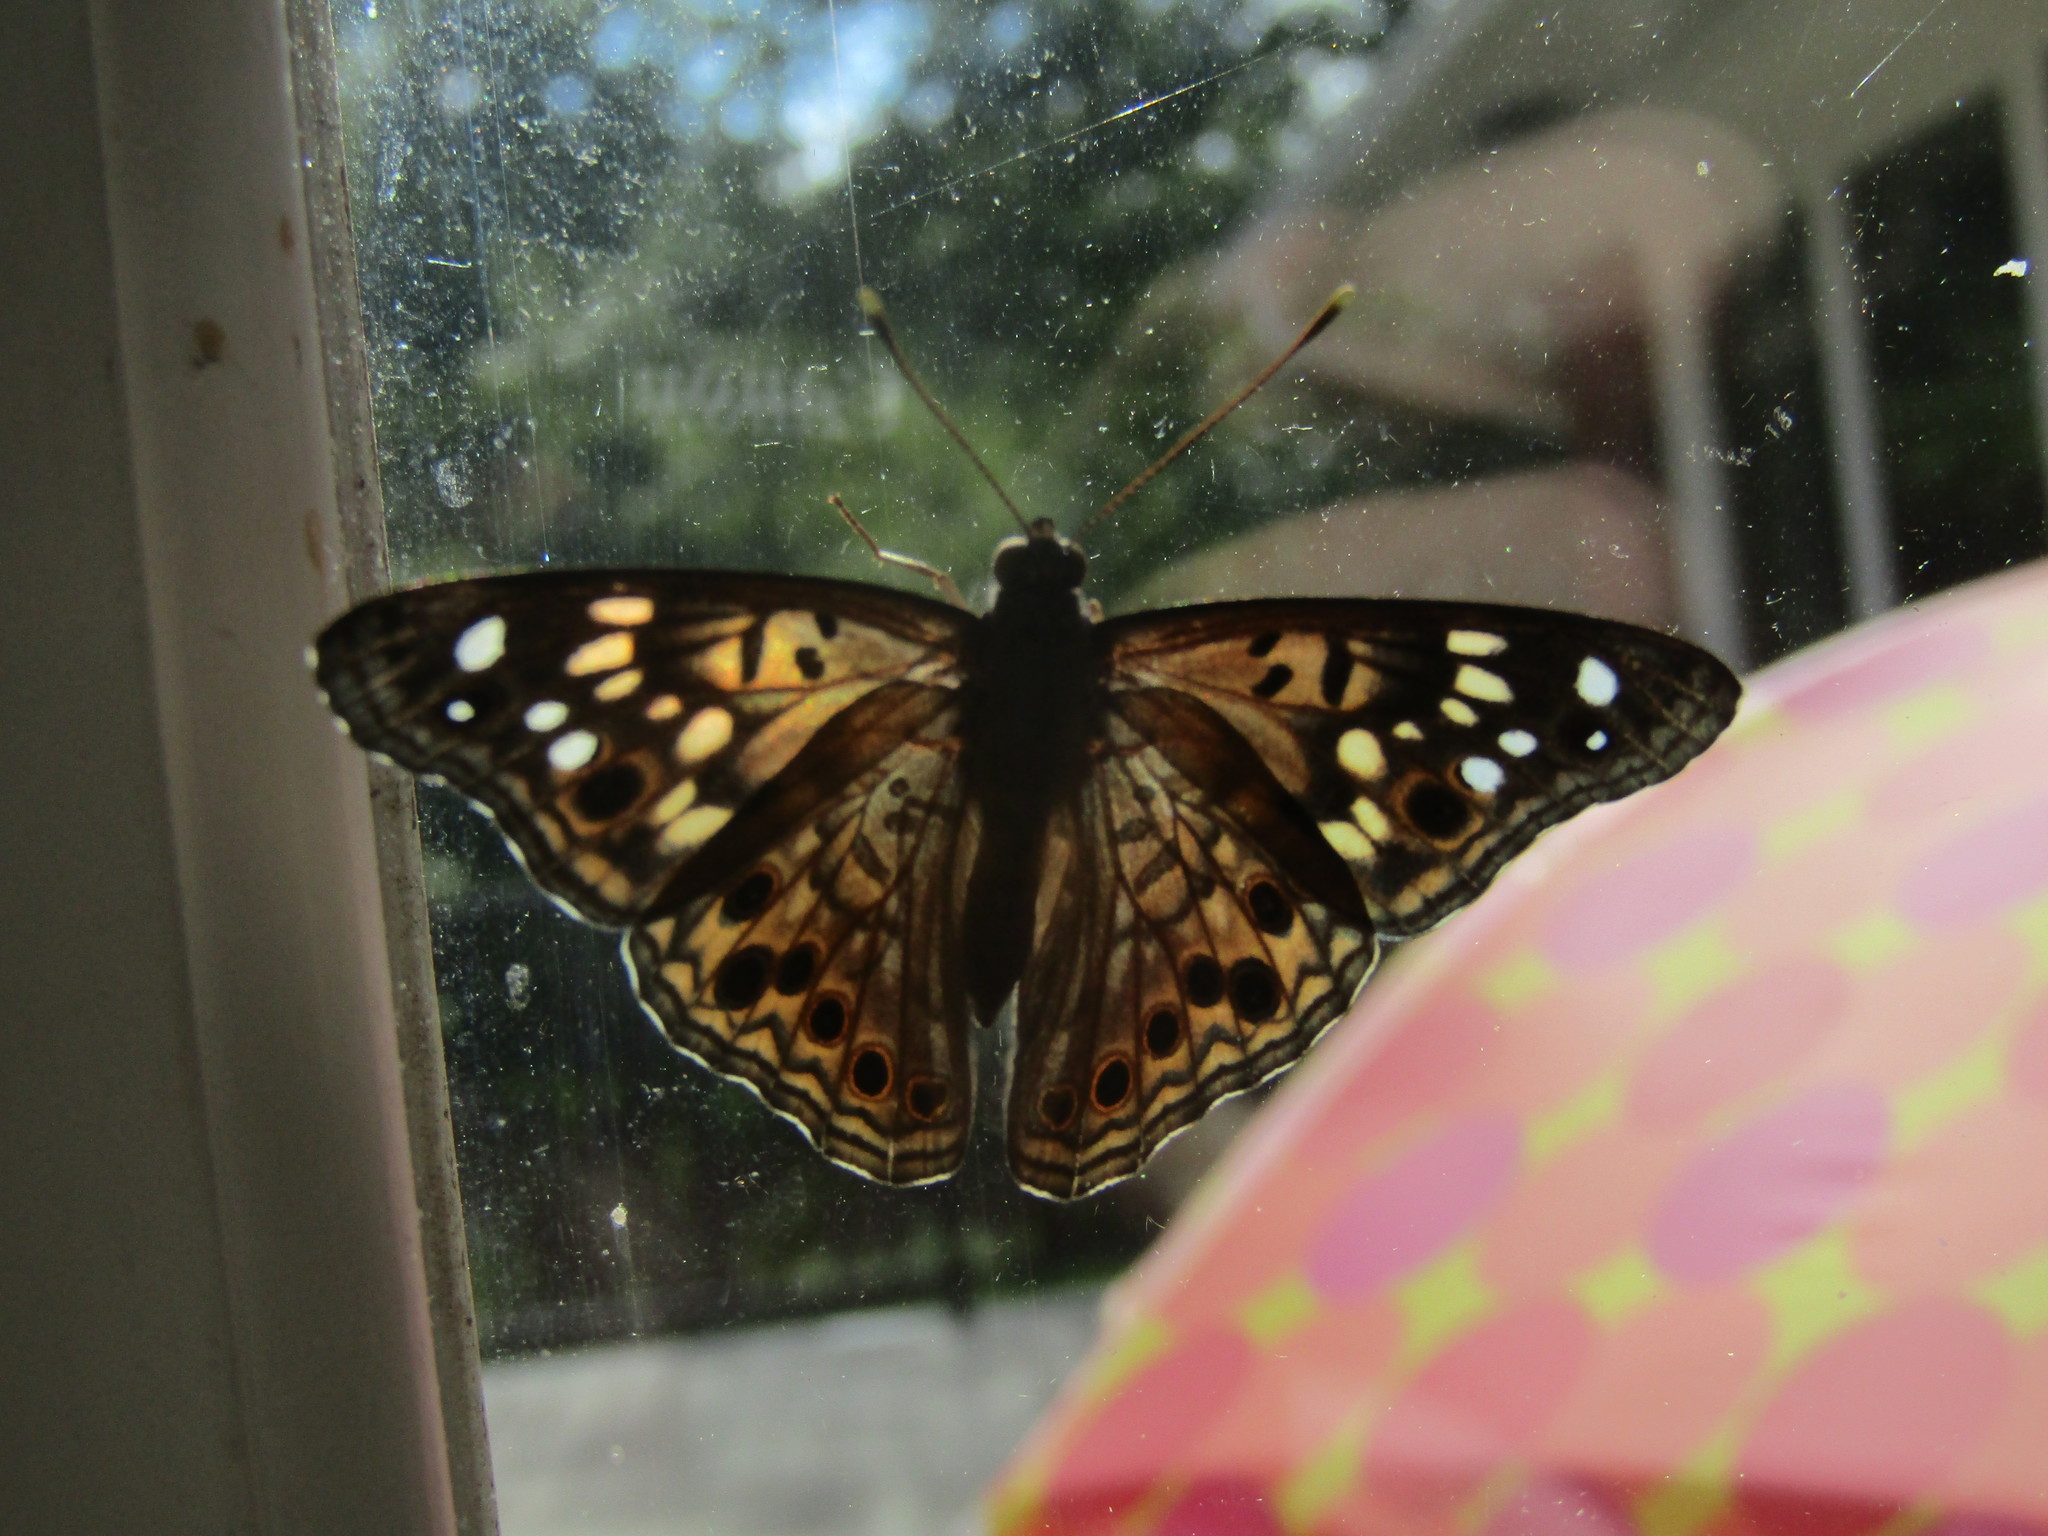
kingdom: Animalia
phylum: Arthropoda
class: Insecta
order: Lepidoptera
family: Nymphalidae
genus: Asterocampa
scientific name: Asterocampa celtis
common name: Hackberry emperor
